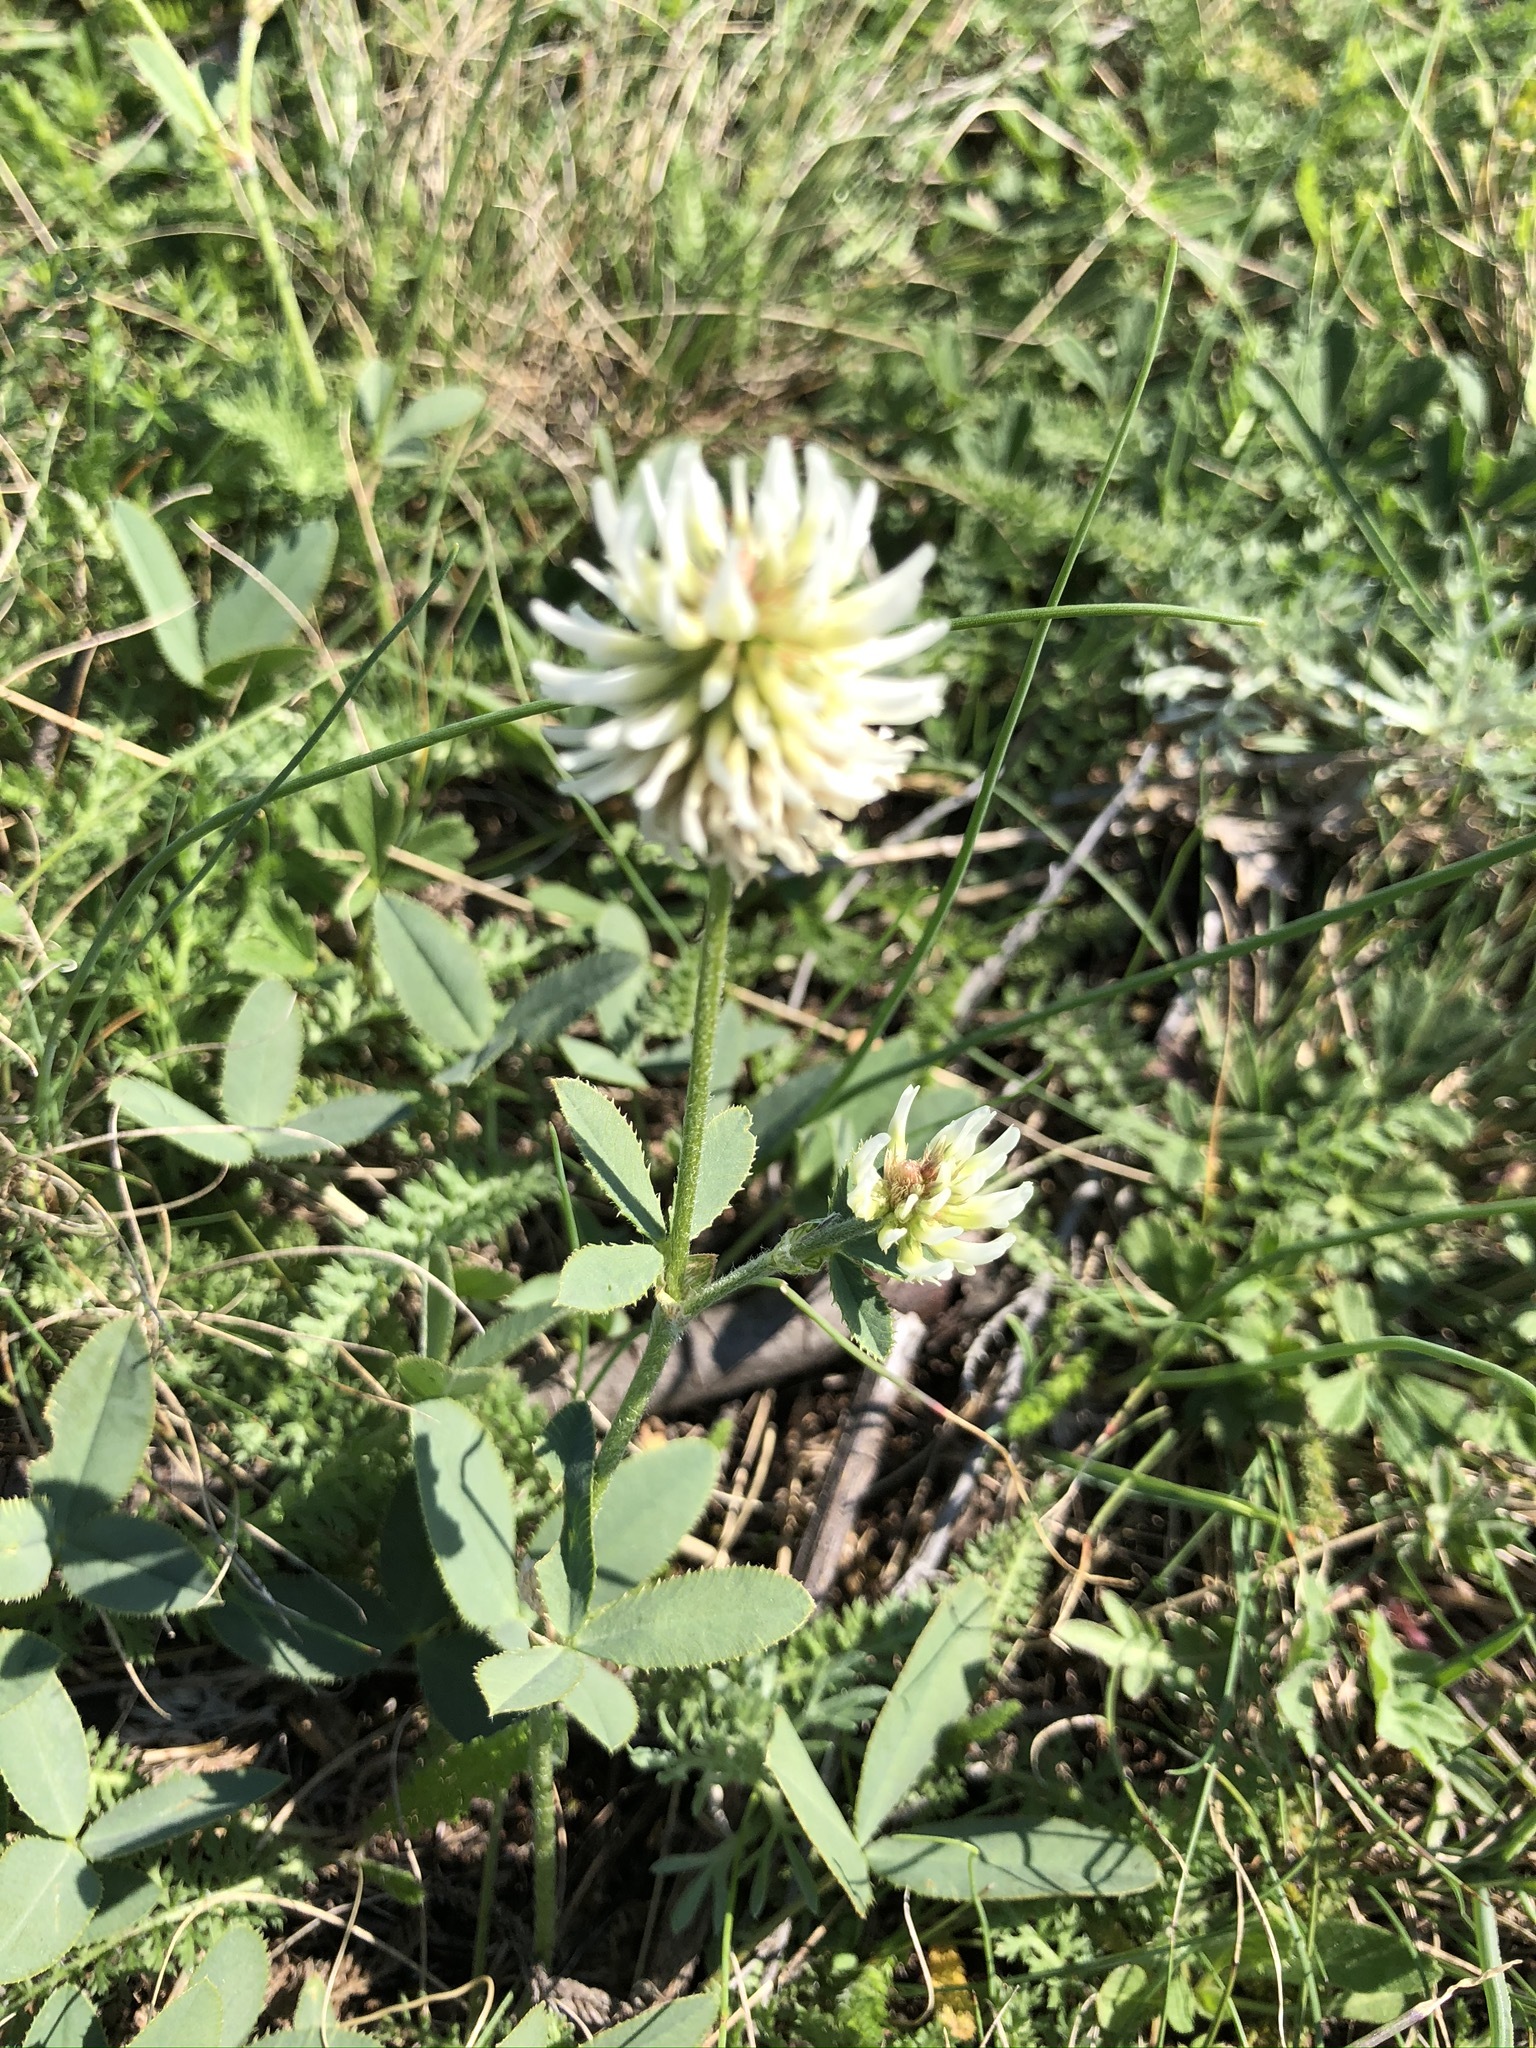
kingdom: Plantae
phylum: Tracheophyta
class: Magnoliopsida
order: Fabales
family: Fabaceae
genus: Trifolium
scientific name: Trifolium montanum
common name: Mountain clover
